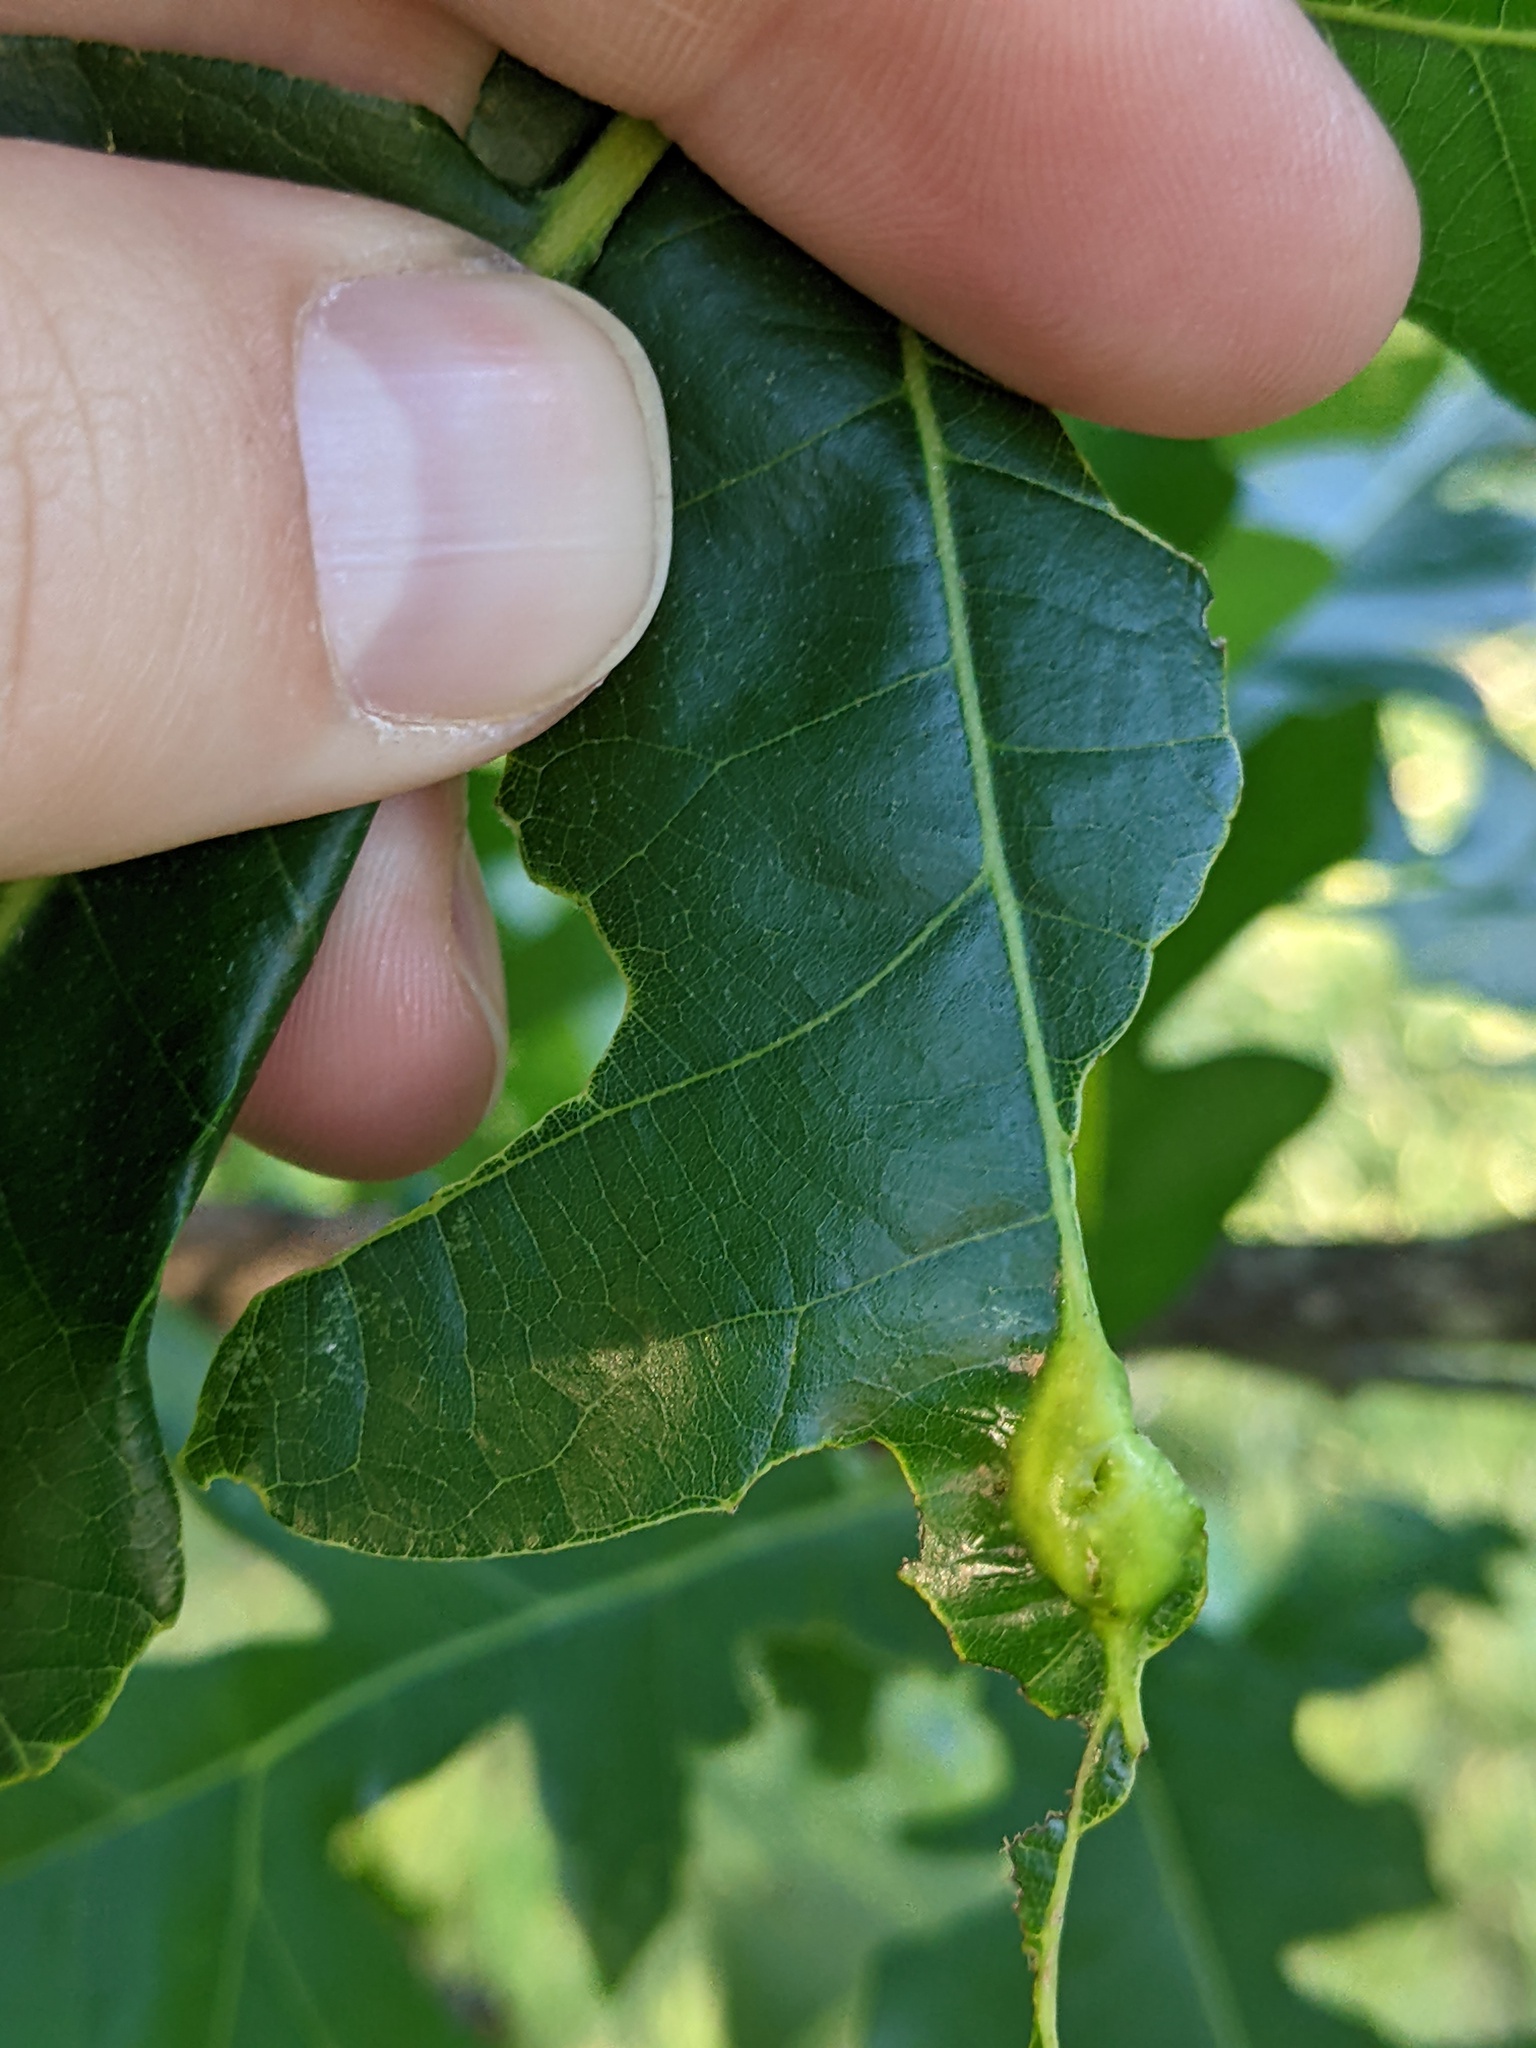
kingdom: Animalia
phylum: Arthropoda
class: Insecta
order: Hymenoptera
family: Cynipidae
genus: Bassettia
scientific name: Bassettia flavipes
